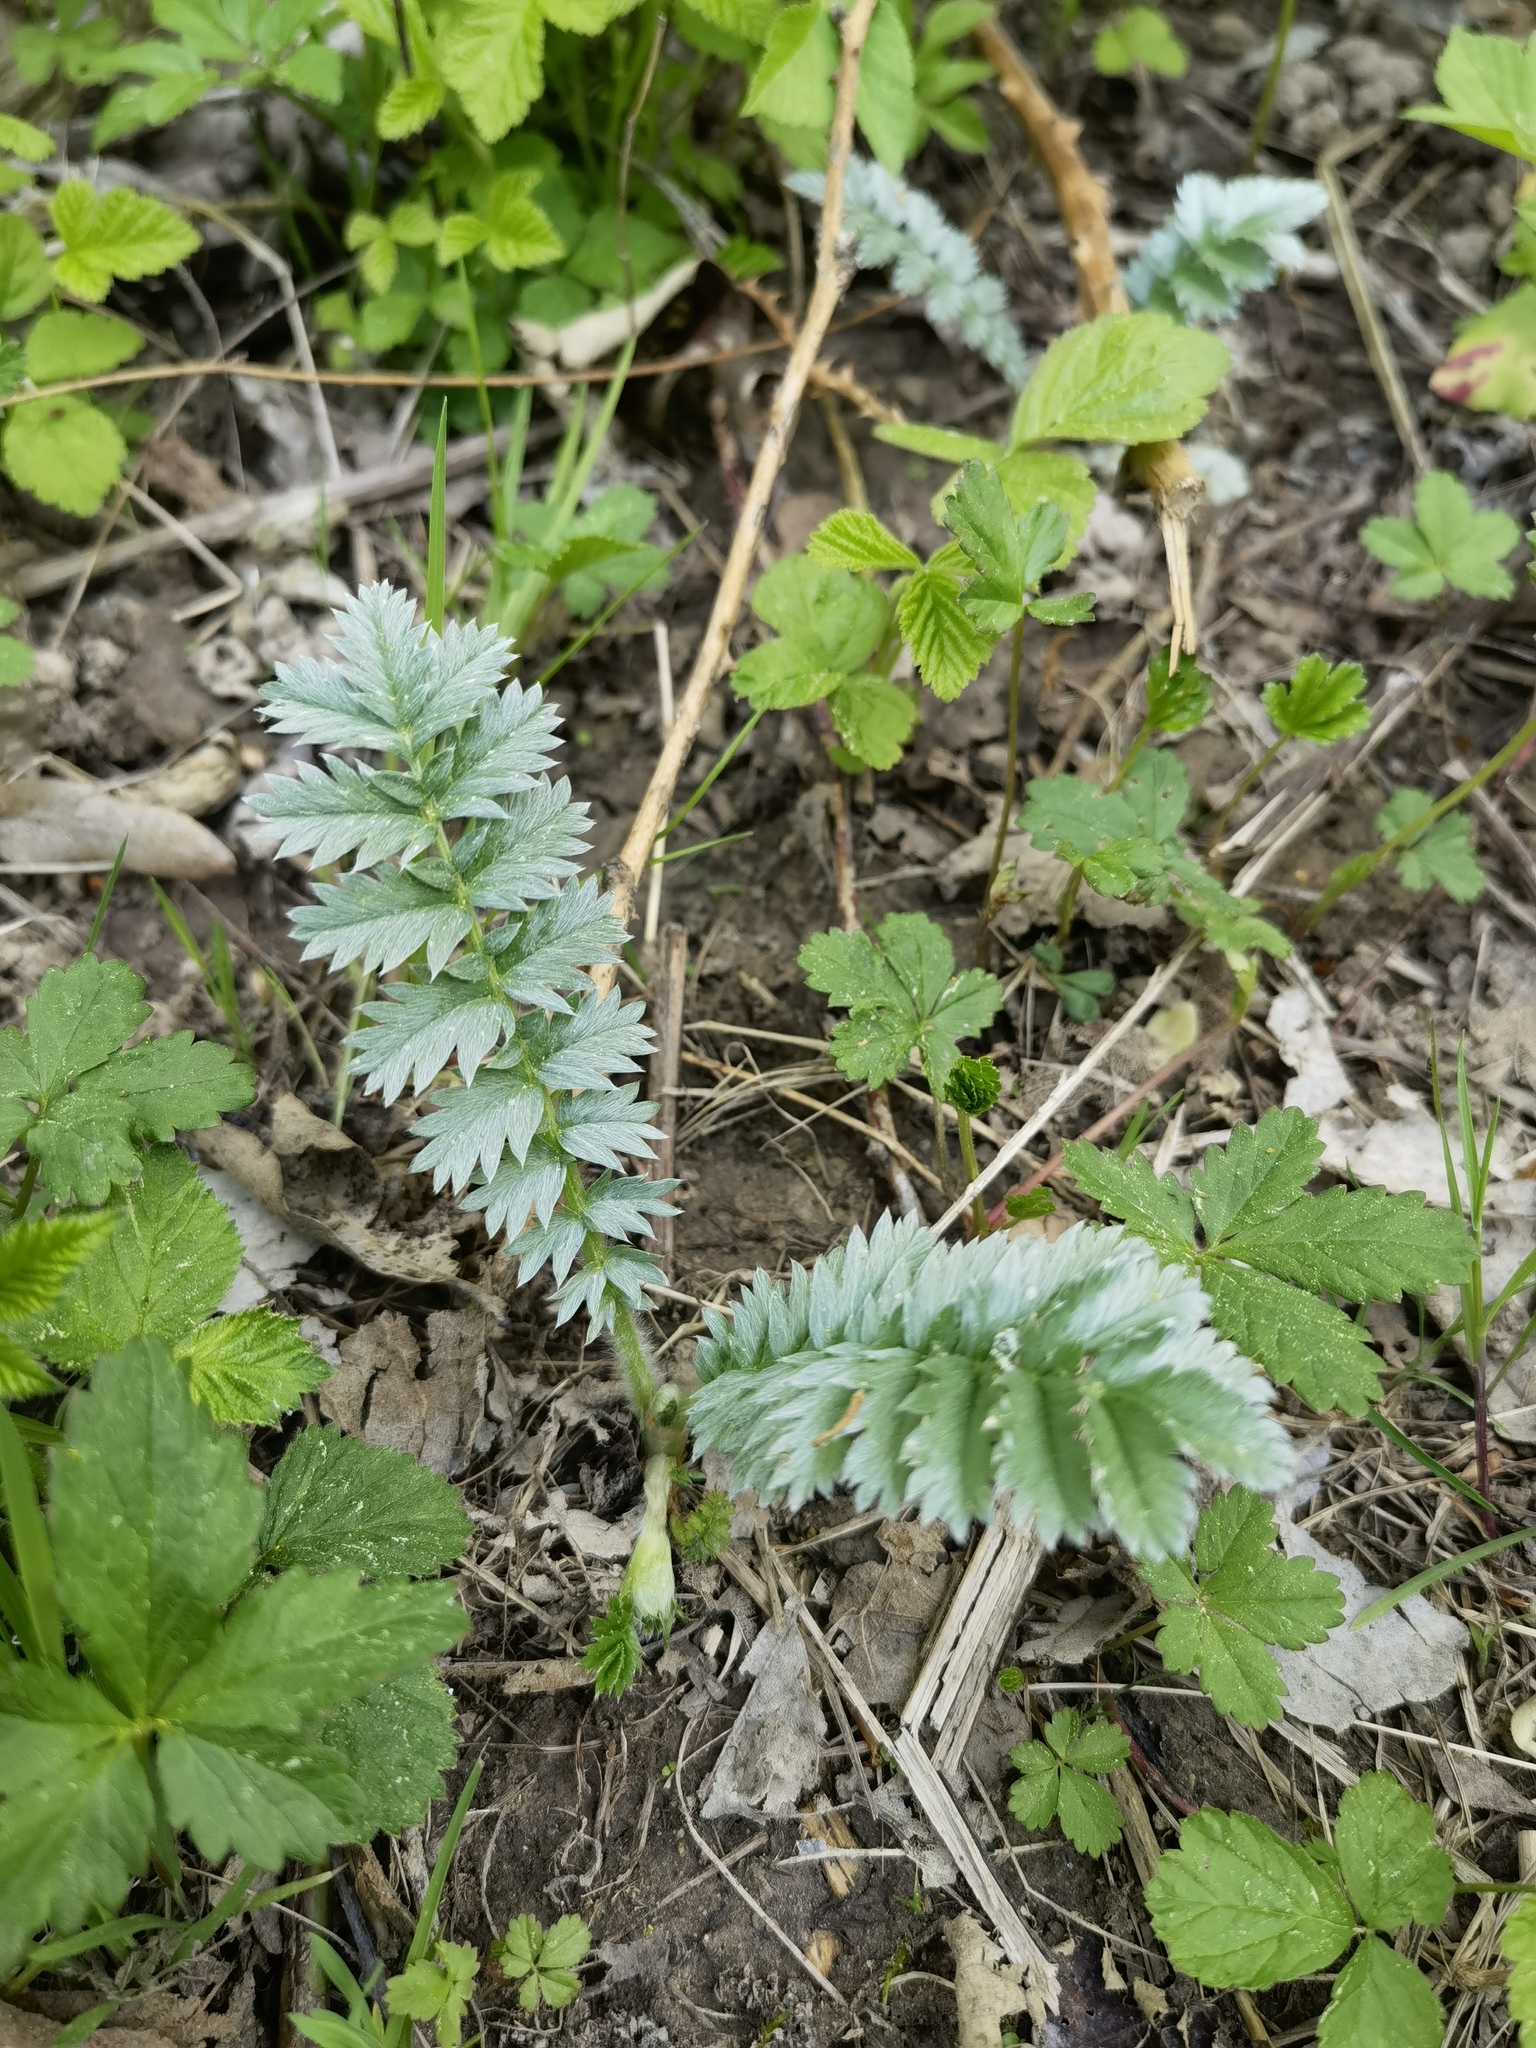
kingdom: Plantae
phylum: Tracheophyta
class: Magnoliopsida
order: Rosales
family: Rosaceae
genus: Argentina
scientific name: Argentina anserina
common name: Common silverweed
